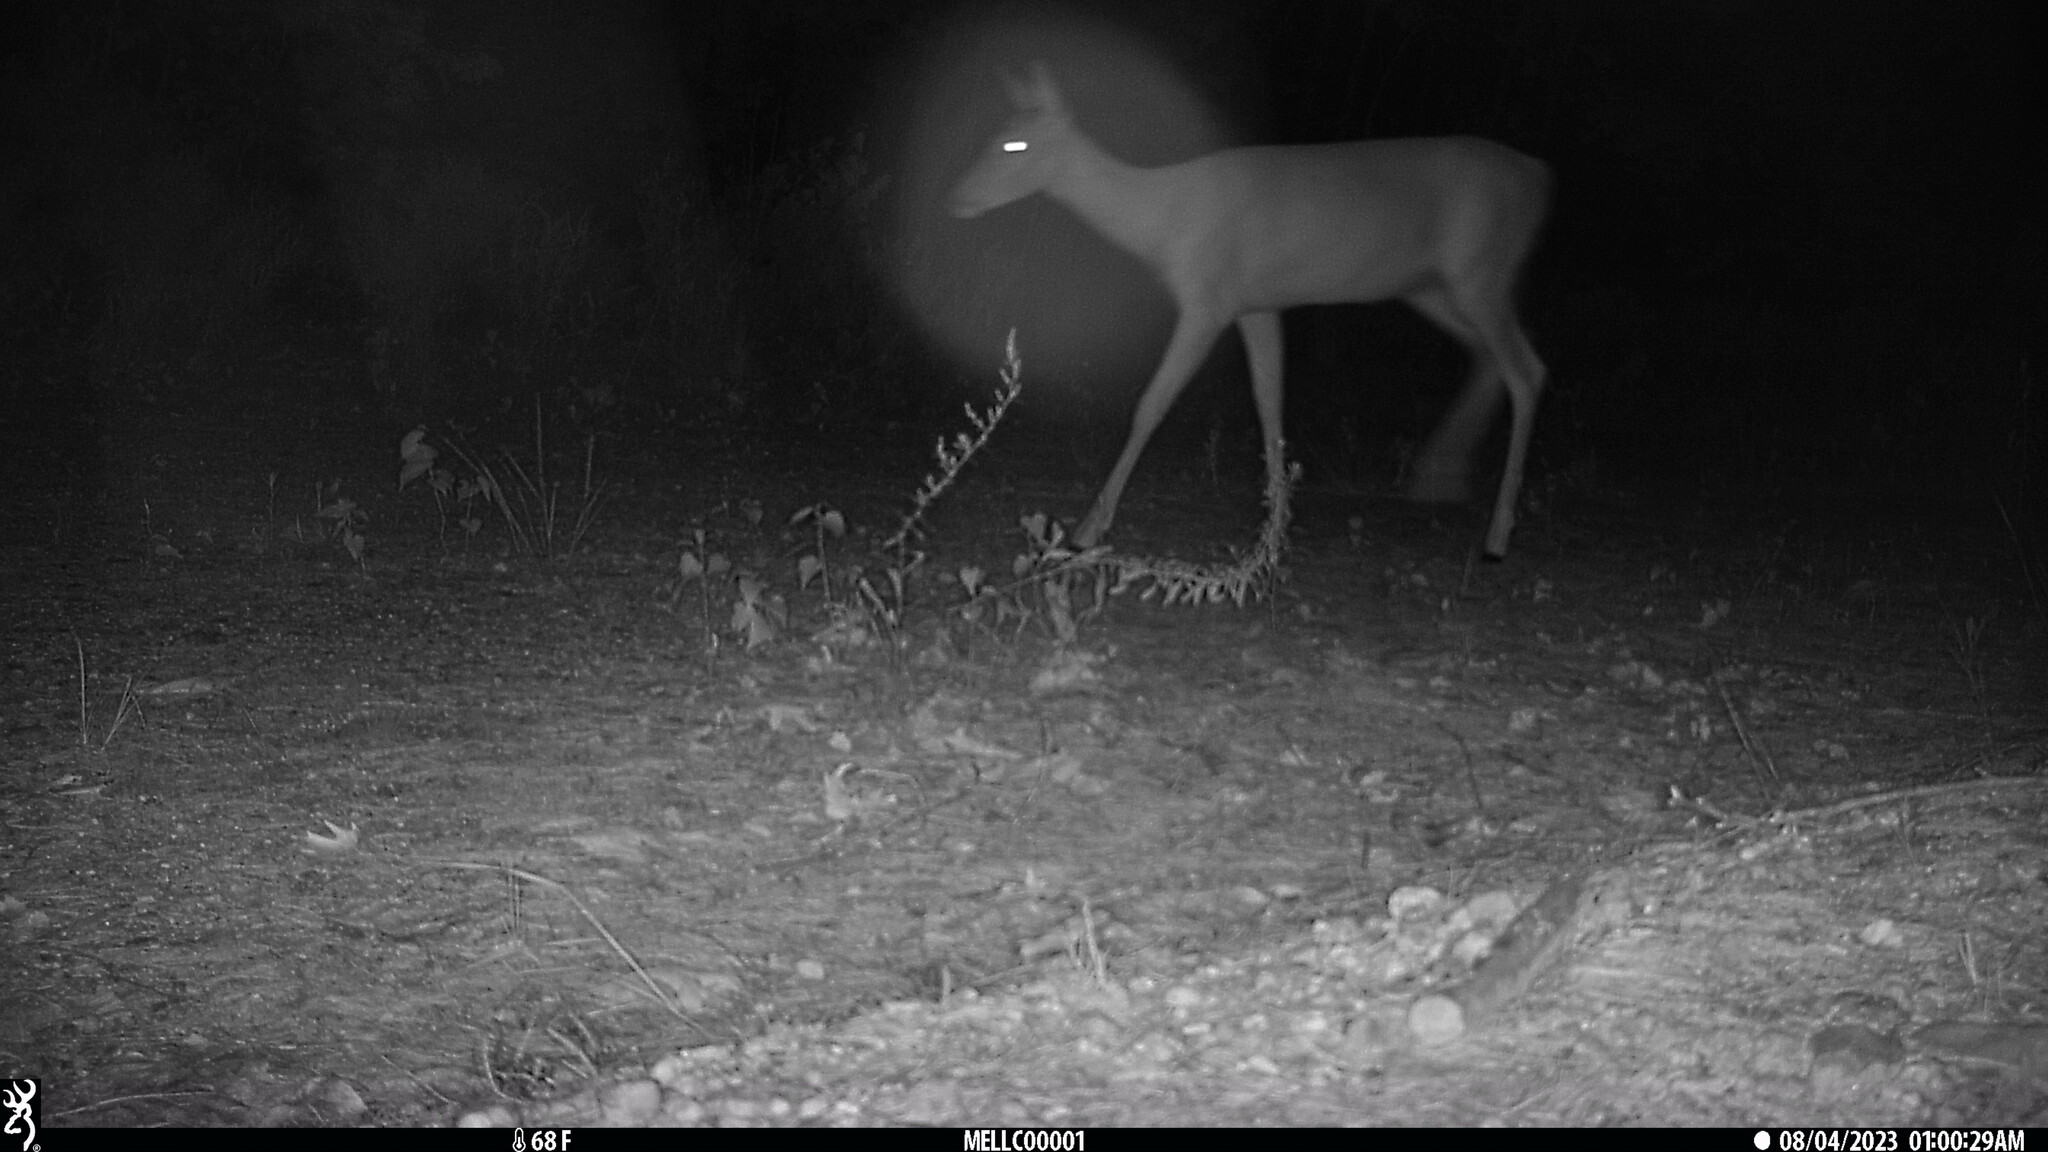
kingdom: Animalia
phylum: Chordata
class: Mammalia
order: Artiodactyla
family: Cervidae
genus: Odocoileus
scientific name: Odocoileus virginianus
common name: White-tailed deer
